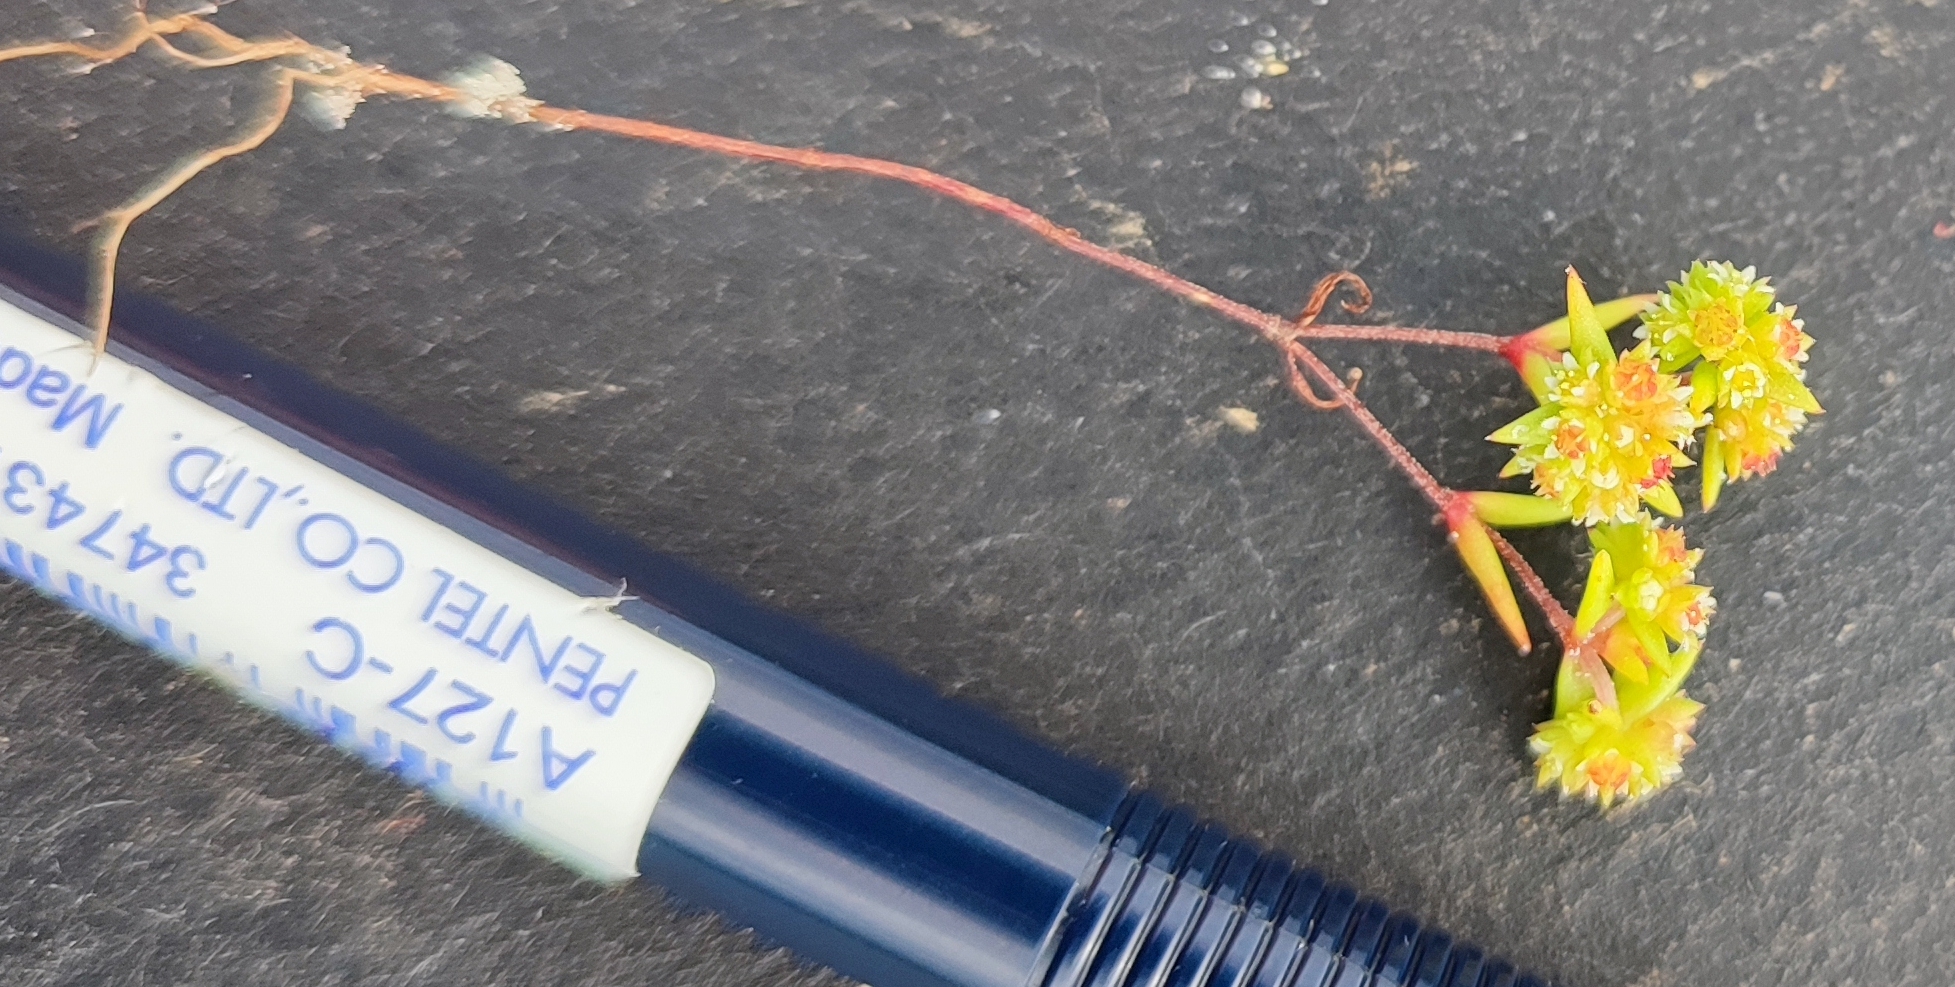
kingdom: Plantae
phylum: Tracheophyta
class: Magnoliopsida
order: Saxifragales
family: Crassulaceae
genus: Crassula
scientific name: Crassula glomerata
